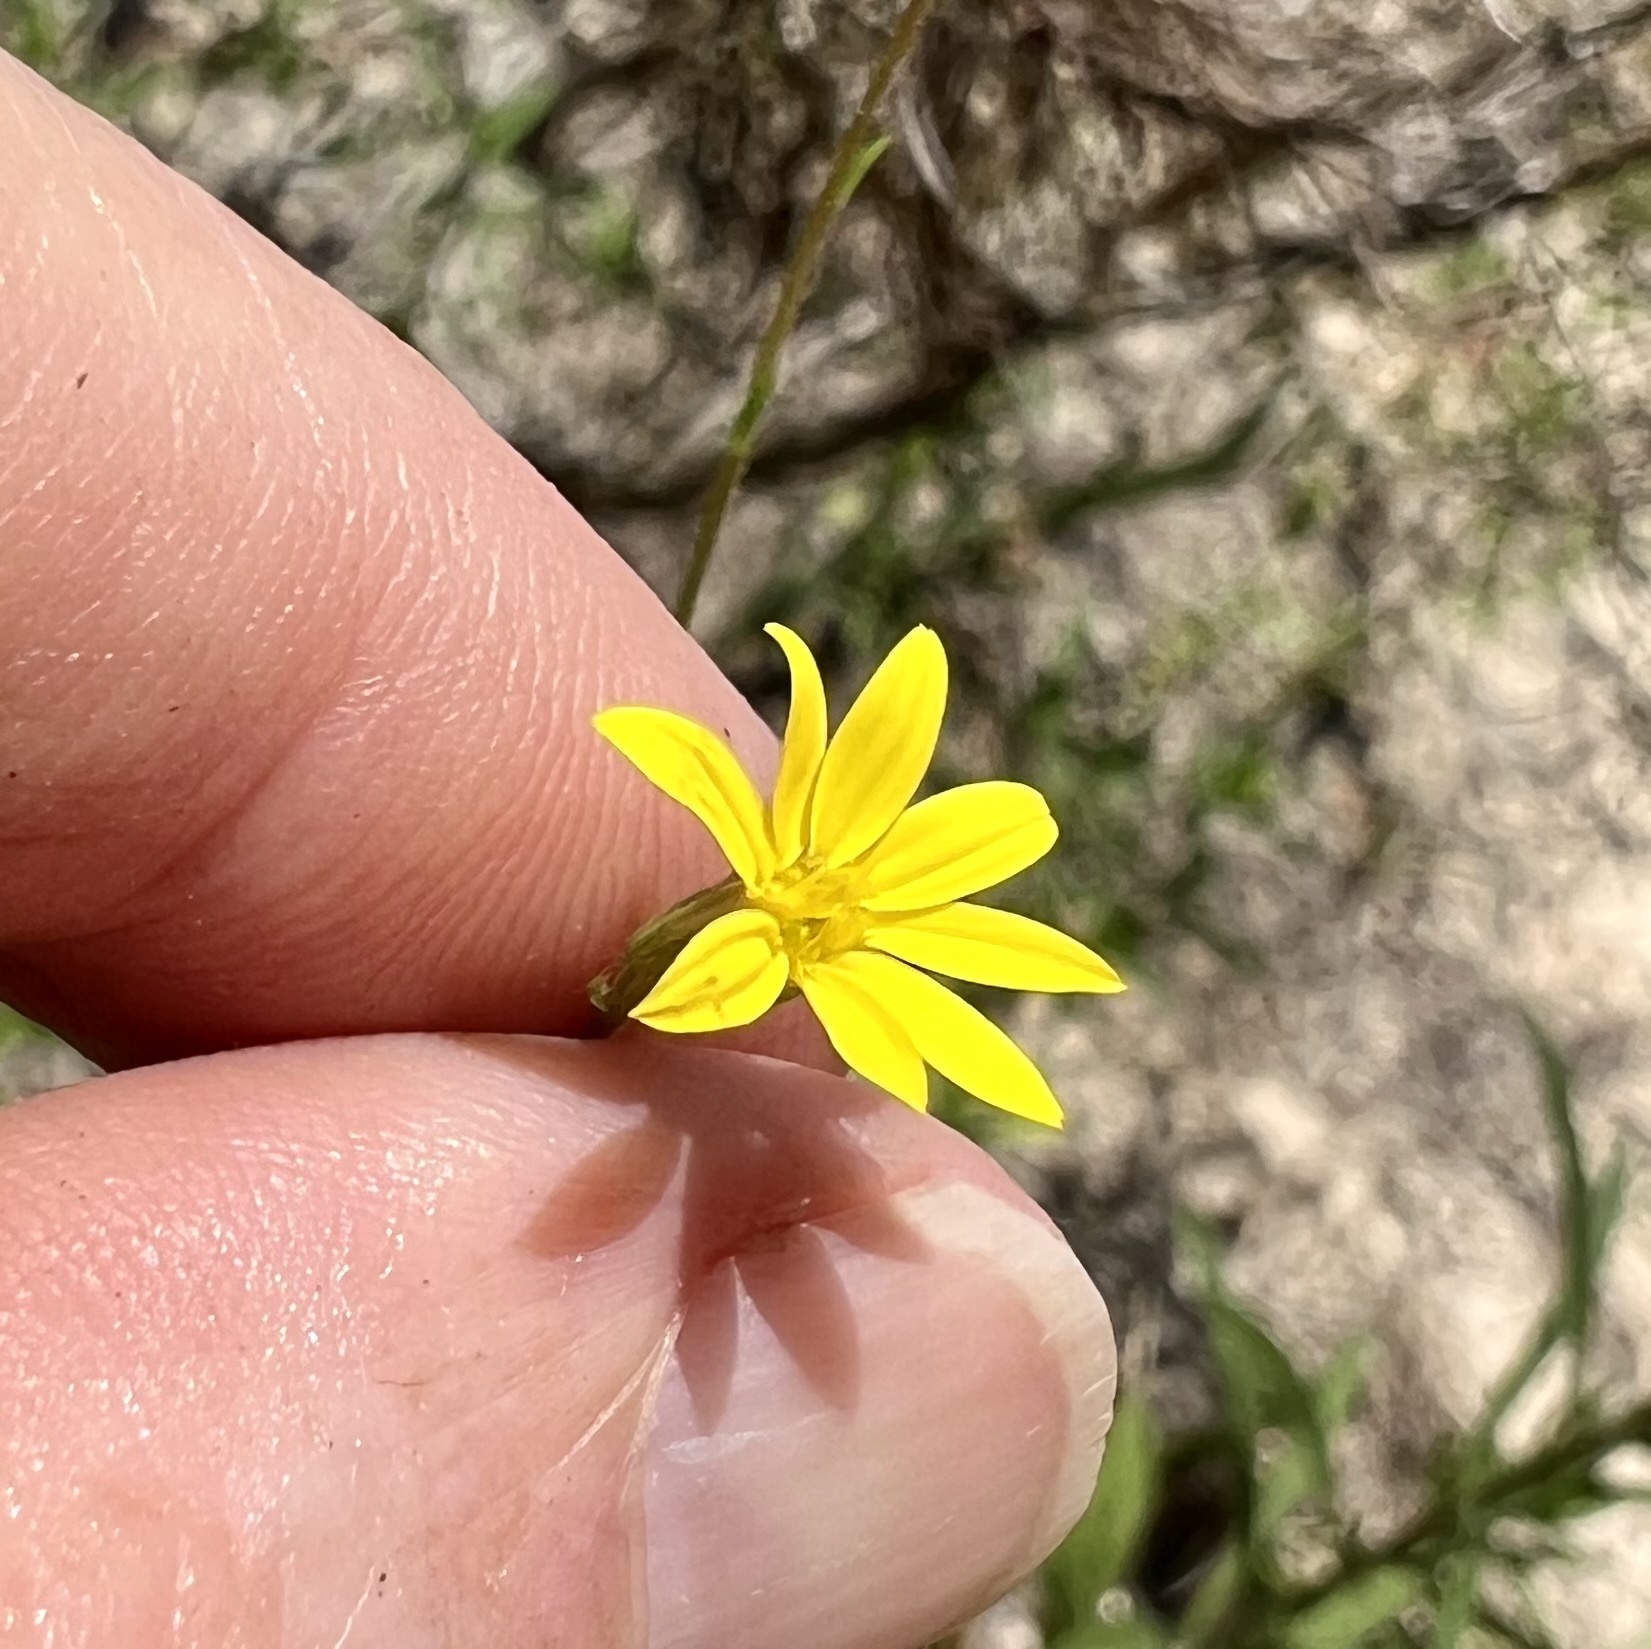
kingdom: Plantae
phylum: Tracheophyta
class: Magnoliopsida
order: Asterales
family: Asteraceae
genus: Croptilon
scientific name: Croptilon divaricatum
